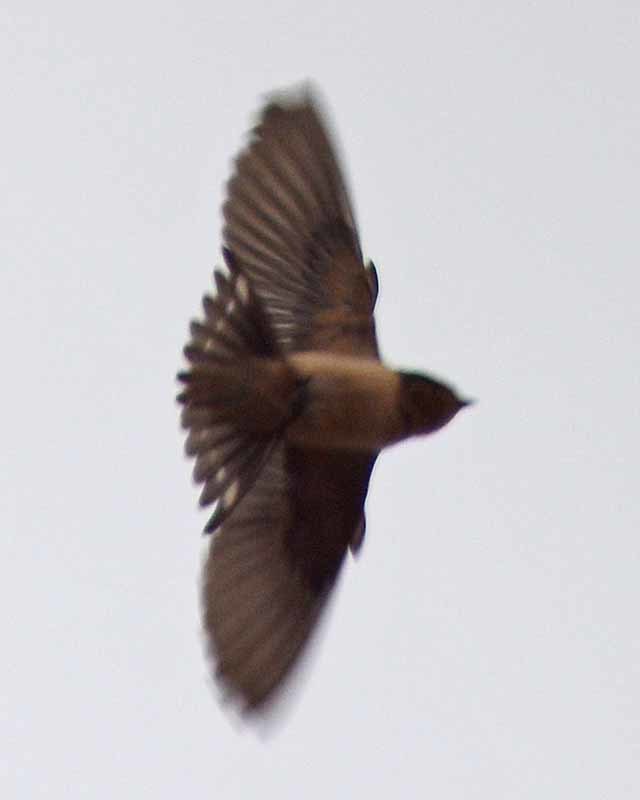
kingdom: Animalia
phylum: Chordata
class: Aves
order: Passeriformes
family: Hirundinidae
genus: Hirundo
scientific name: Hirundo rustica
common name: Barn swallow
